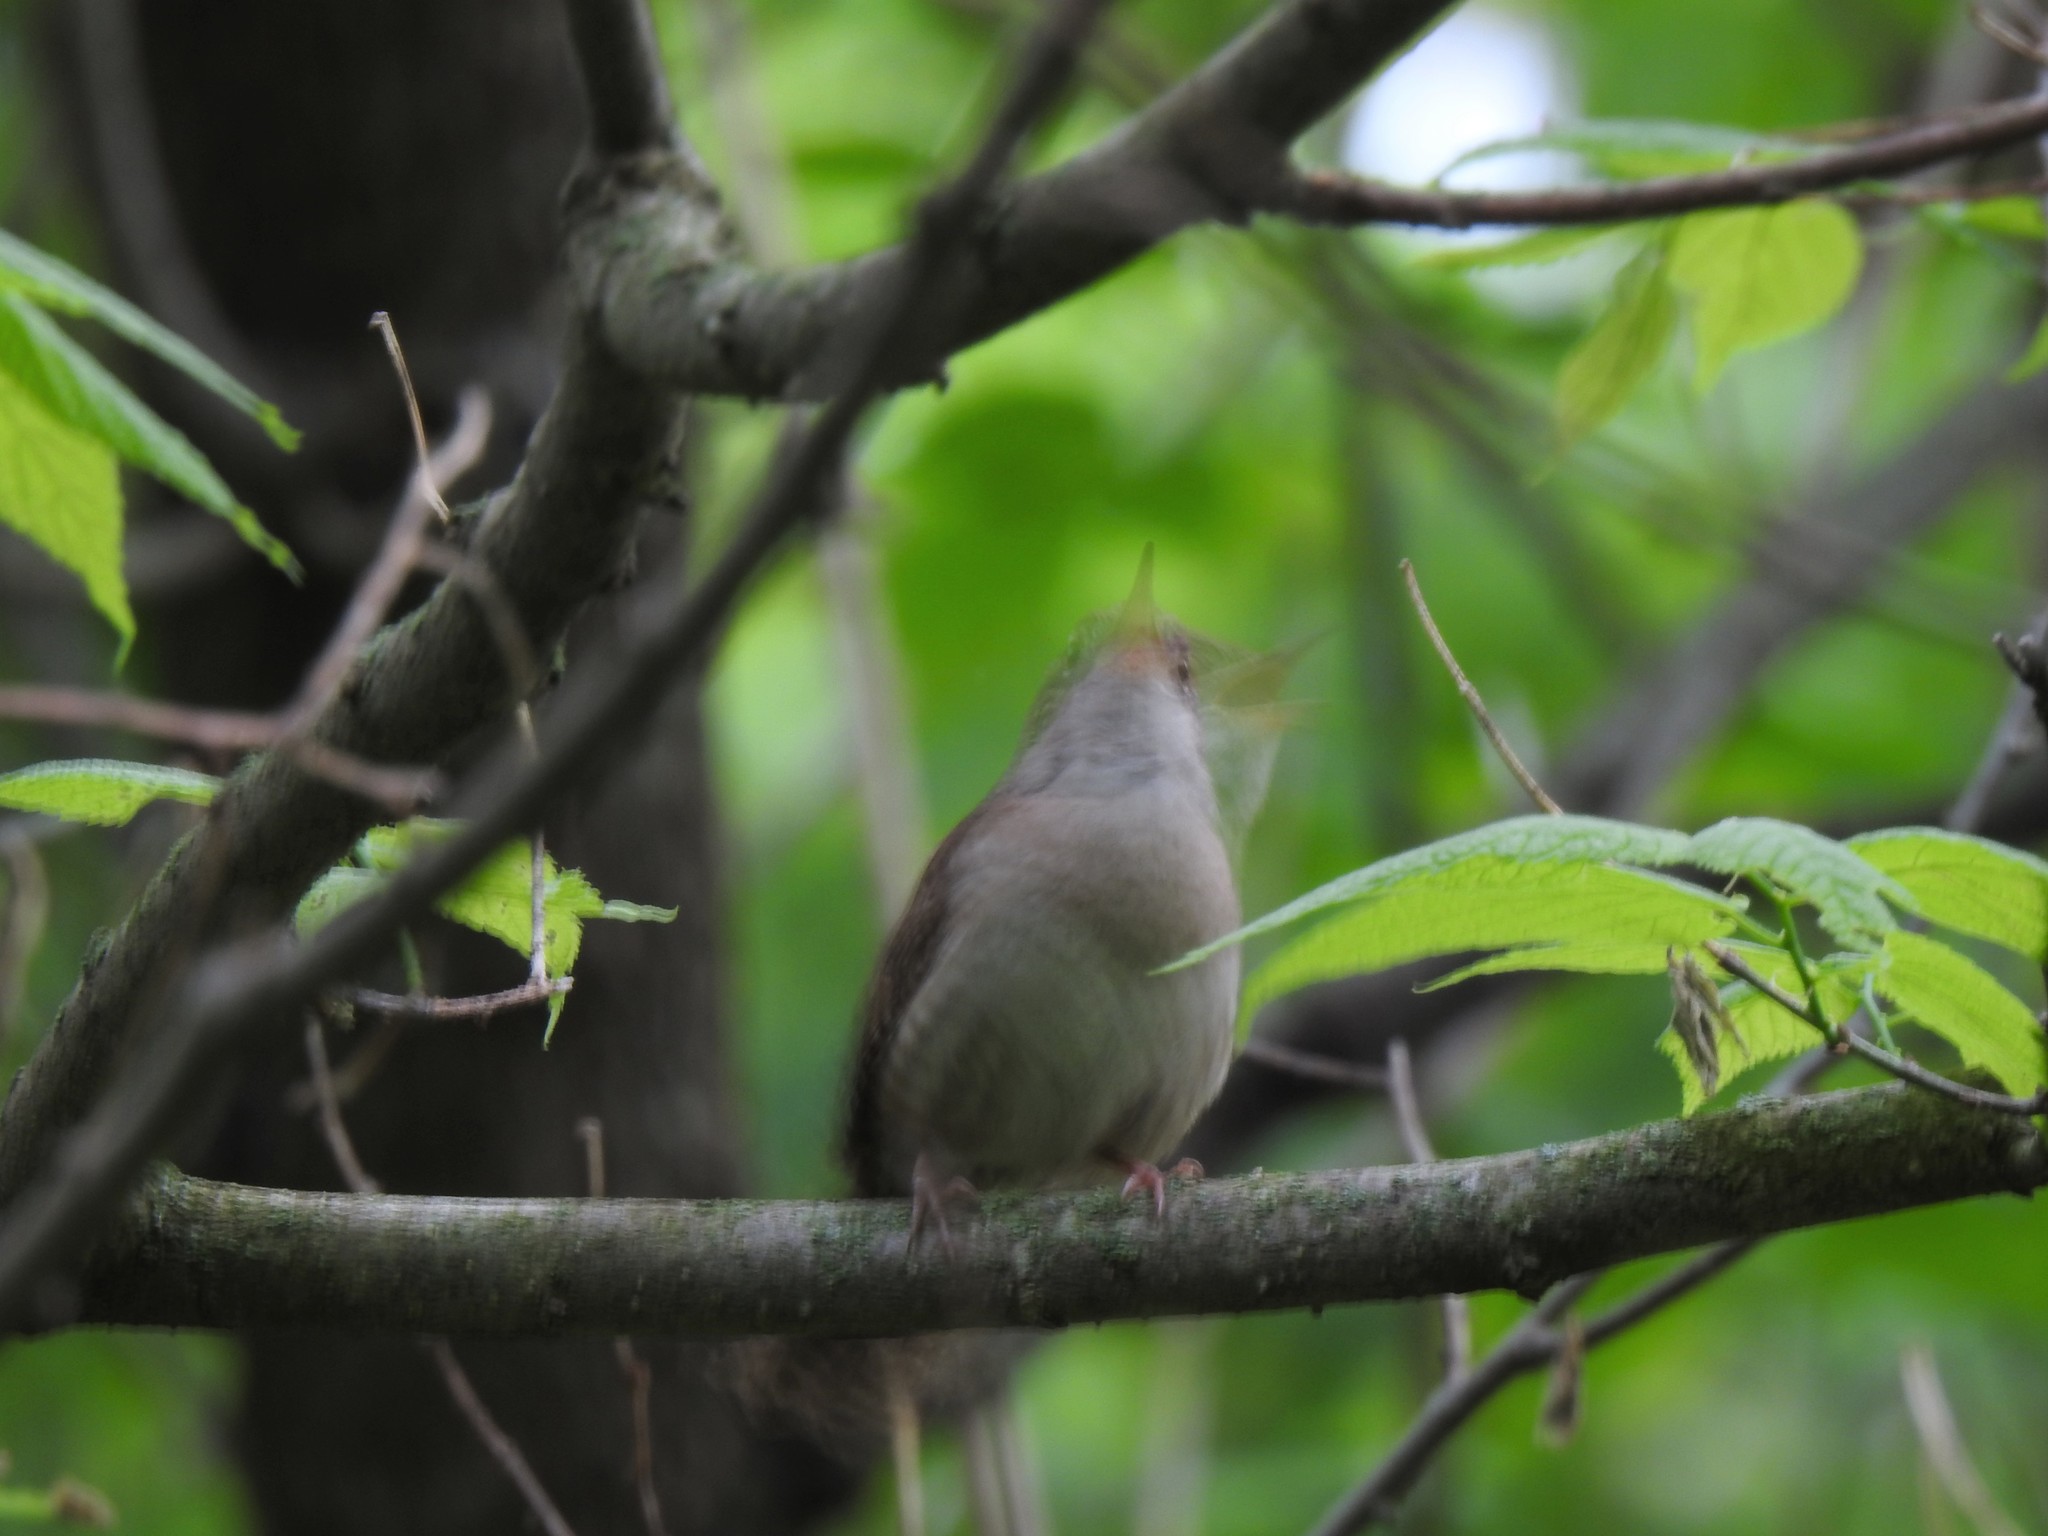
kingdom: Animalia
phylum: Chordata
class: Aves
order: Passeriformes
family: Troglodytidae
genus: Troglodytes
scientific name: Troglodytes aedon
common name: House wren
